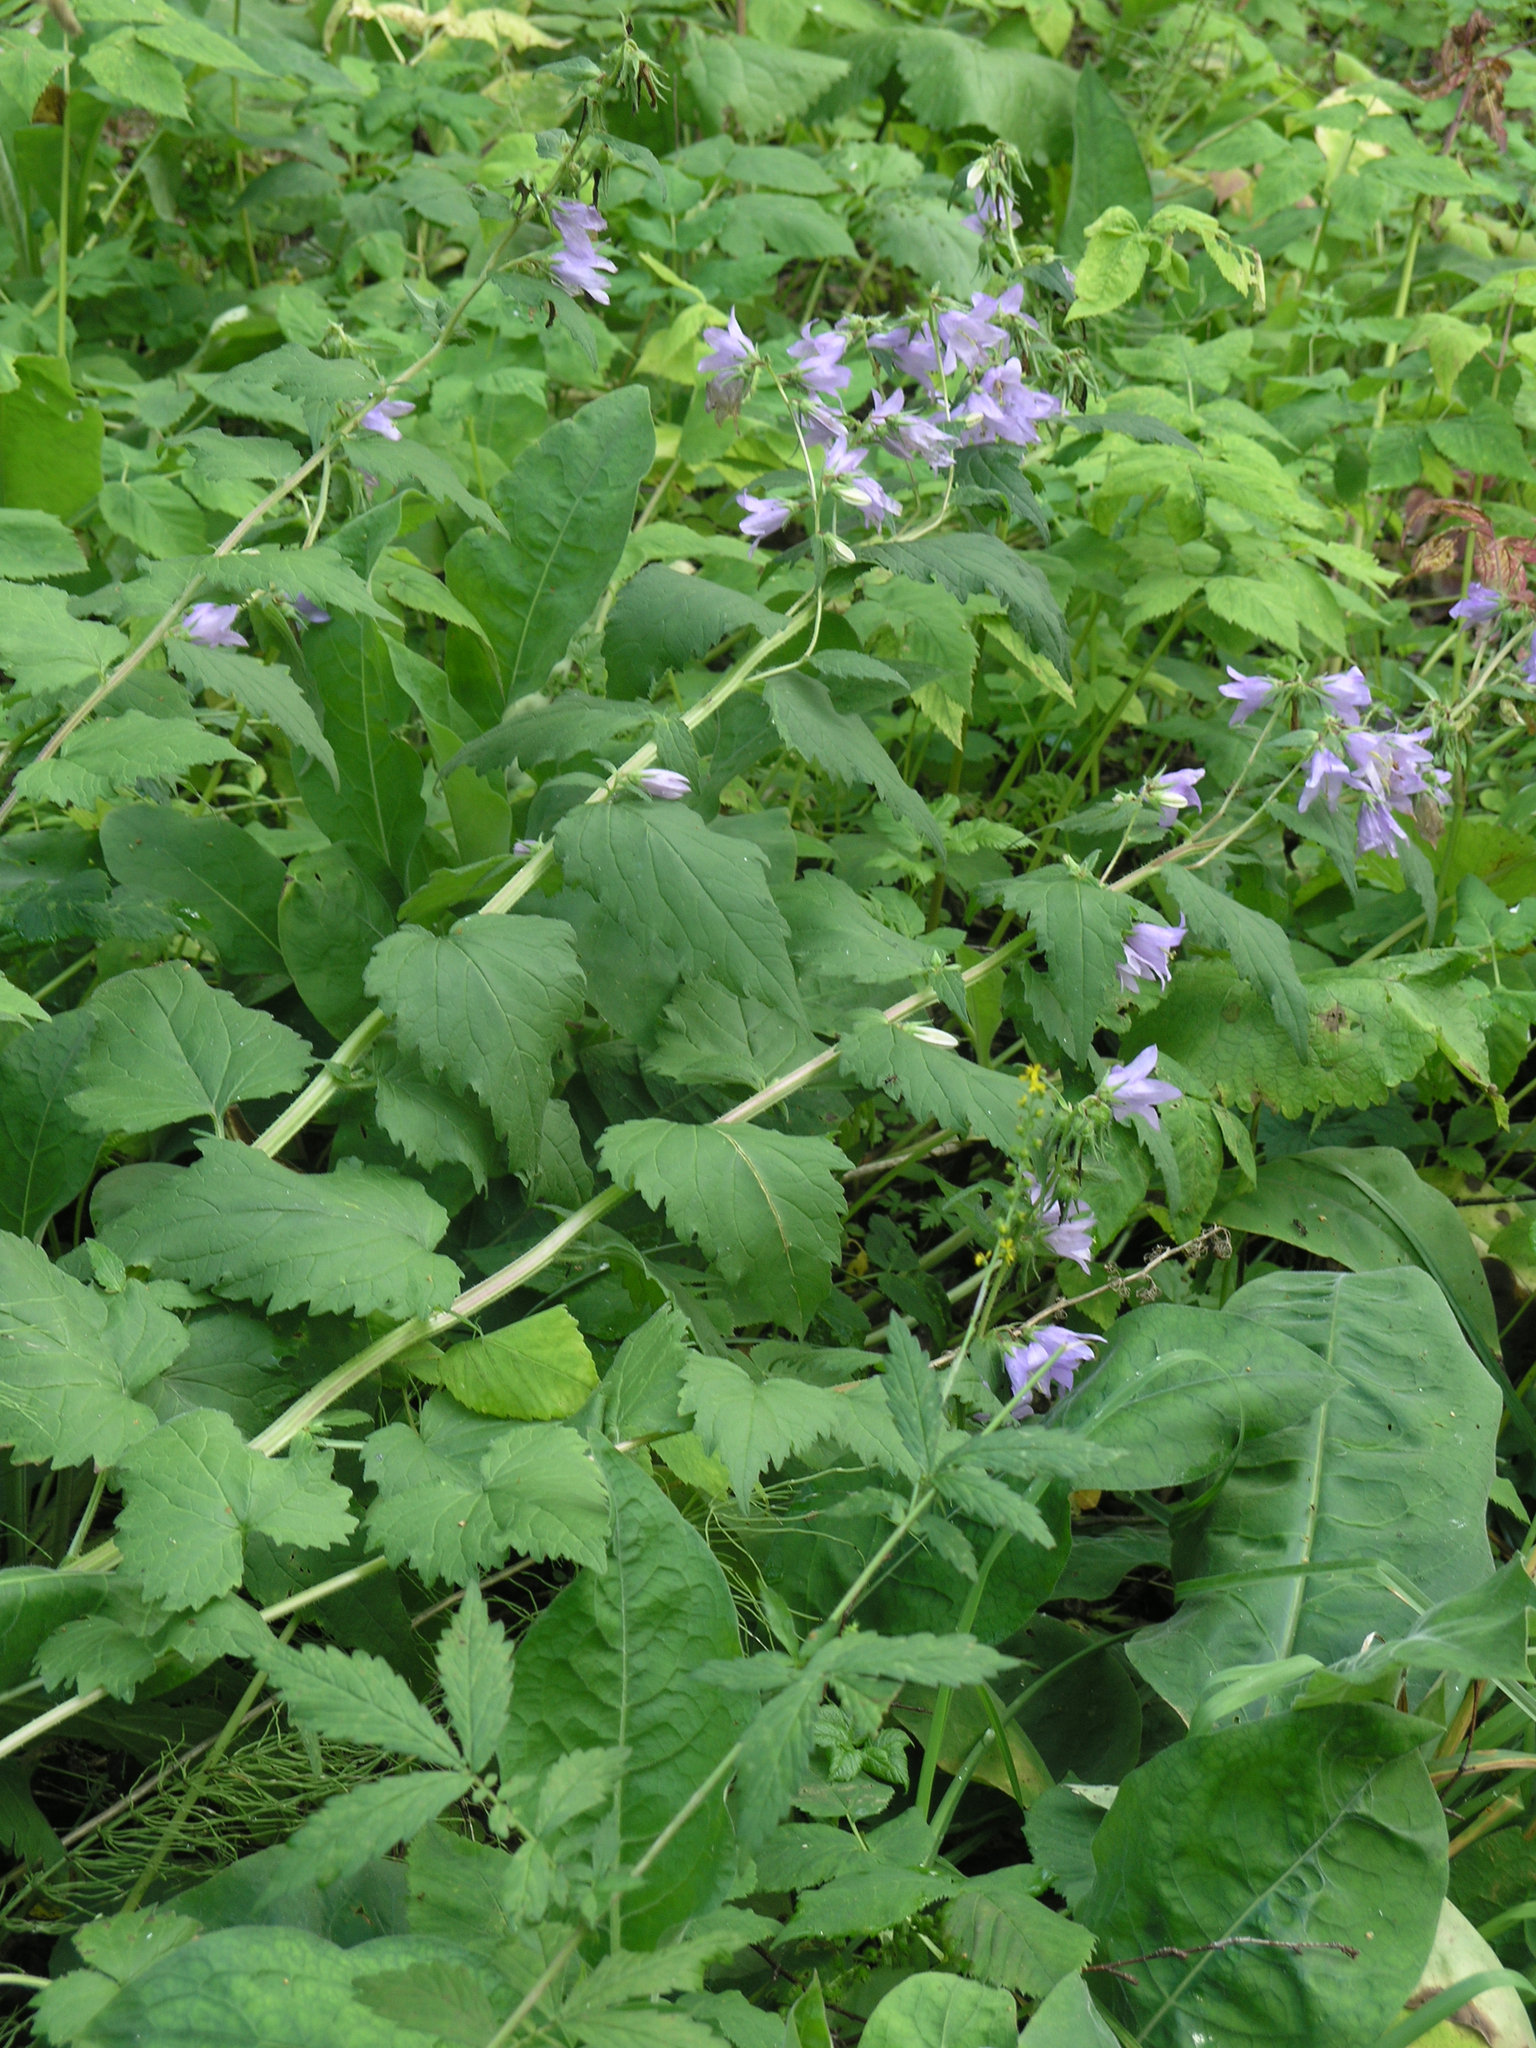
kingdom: Plantae
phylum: Tracheophyta
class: Magnoliopsida
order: Asterales
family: Campanulaceae
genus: Campanula
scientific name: Campanula trachelium
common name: Nettle-leaved bellflower
